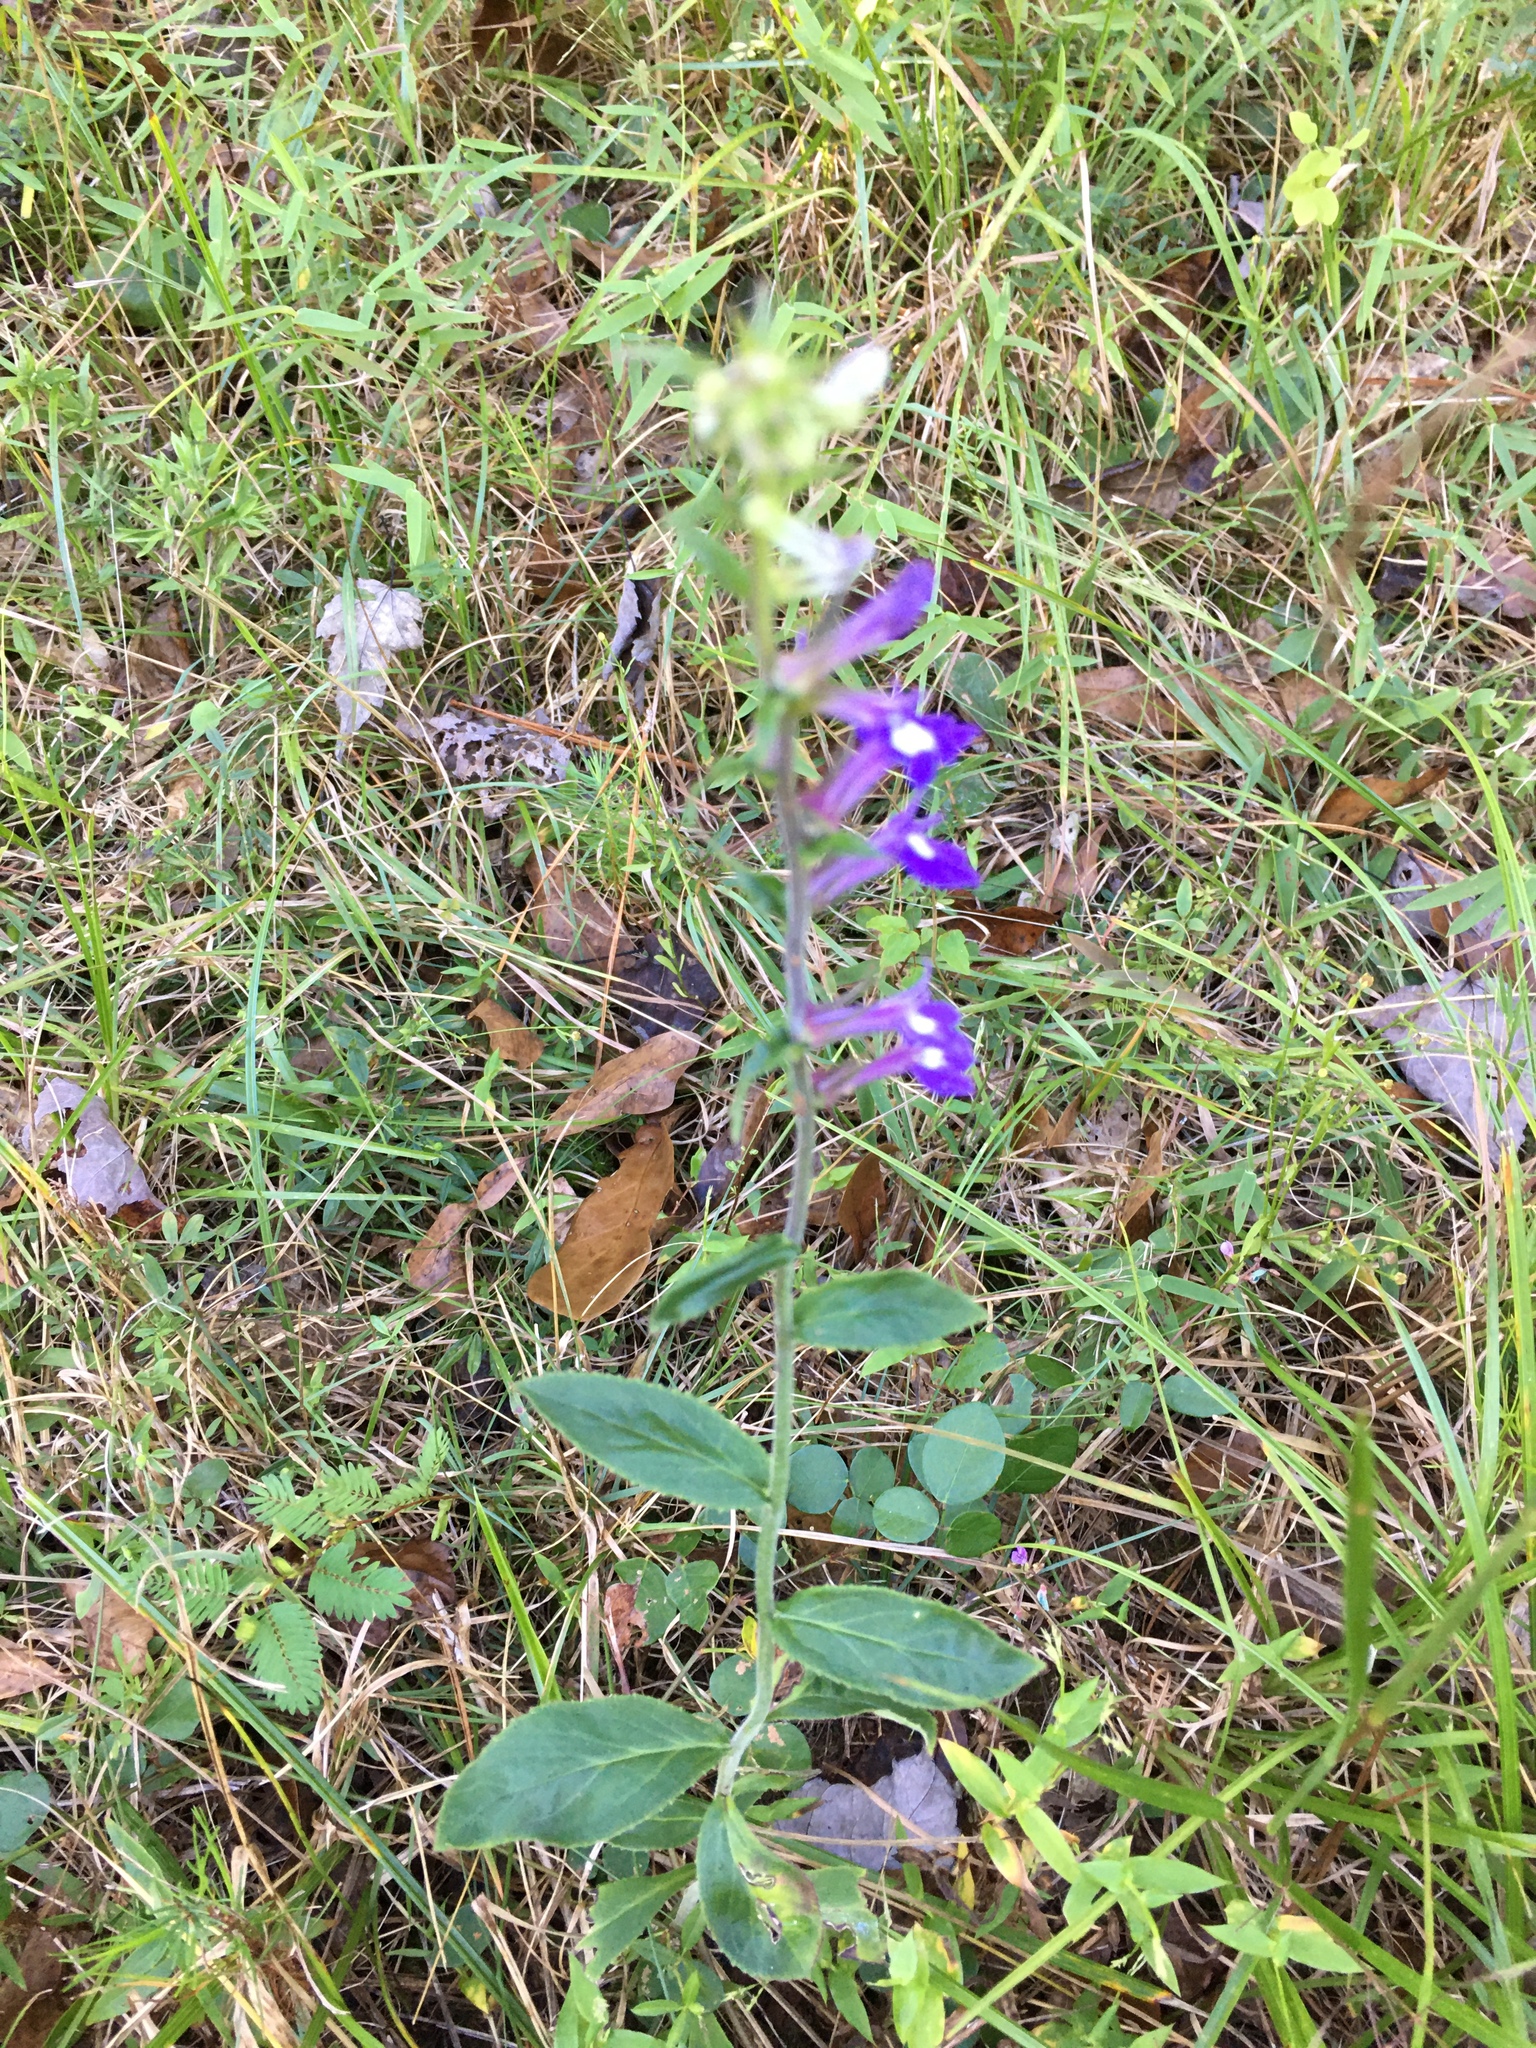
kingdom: Plantae
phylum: Tracheophyta
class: Magnoliopsida
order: Asterales
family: Campanulaceae
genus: Lobelia
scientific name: Lobelia puberula
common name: Purple dewdrop
